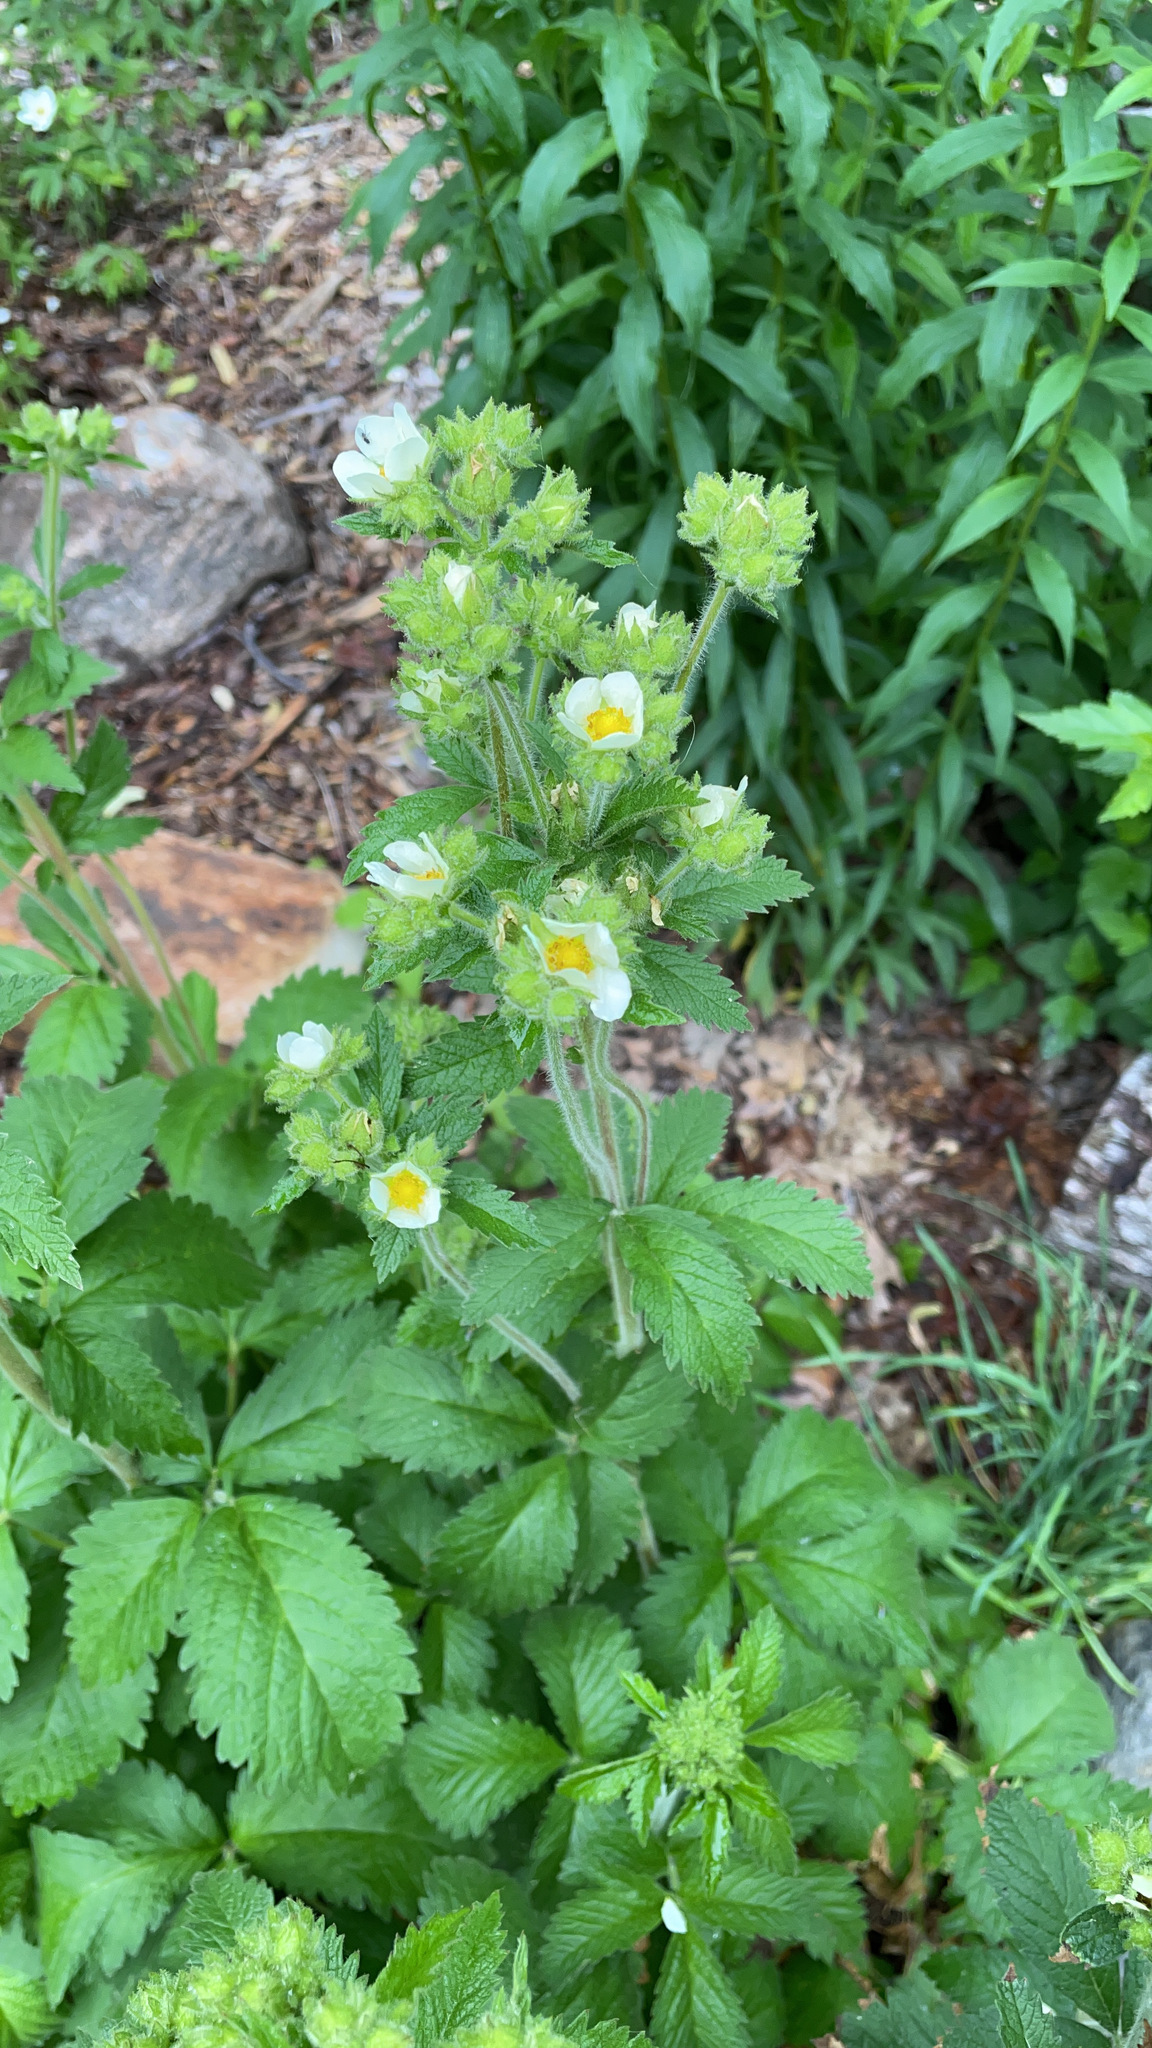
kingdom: Plantae
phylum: Tracheophyta
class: Magnoliopsida
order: Rosales
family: Rosaceae
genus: Drymocallis
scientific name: Drymocallis arguta
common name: Tall cinquefoil
